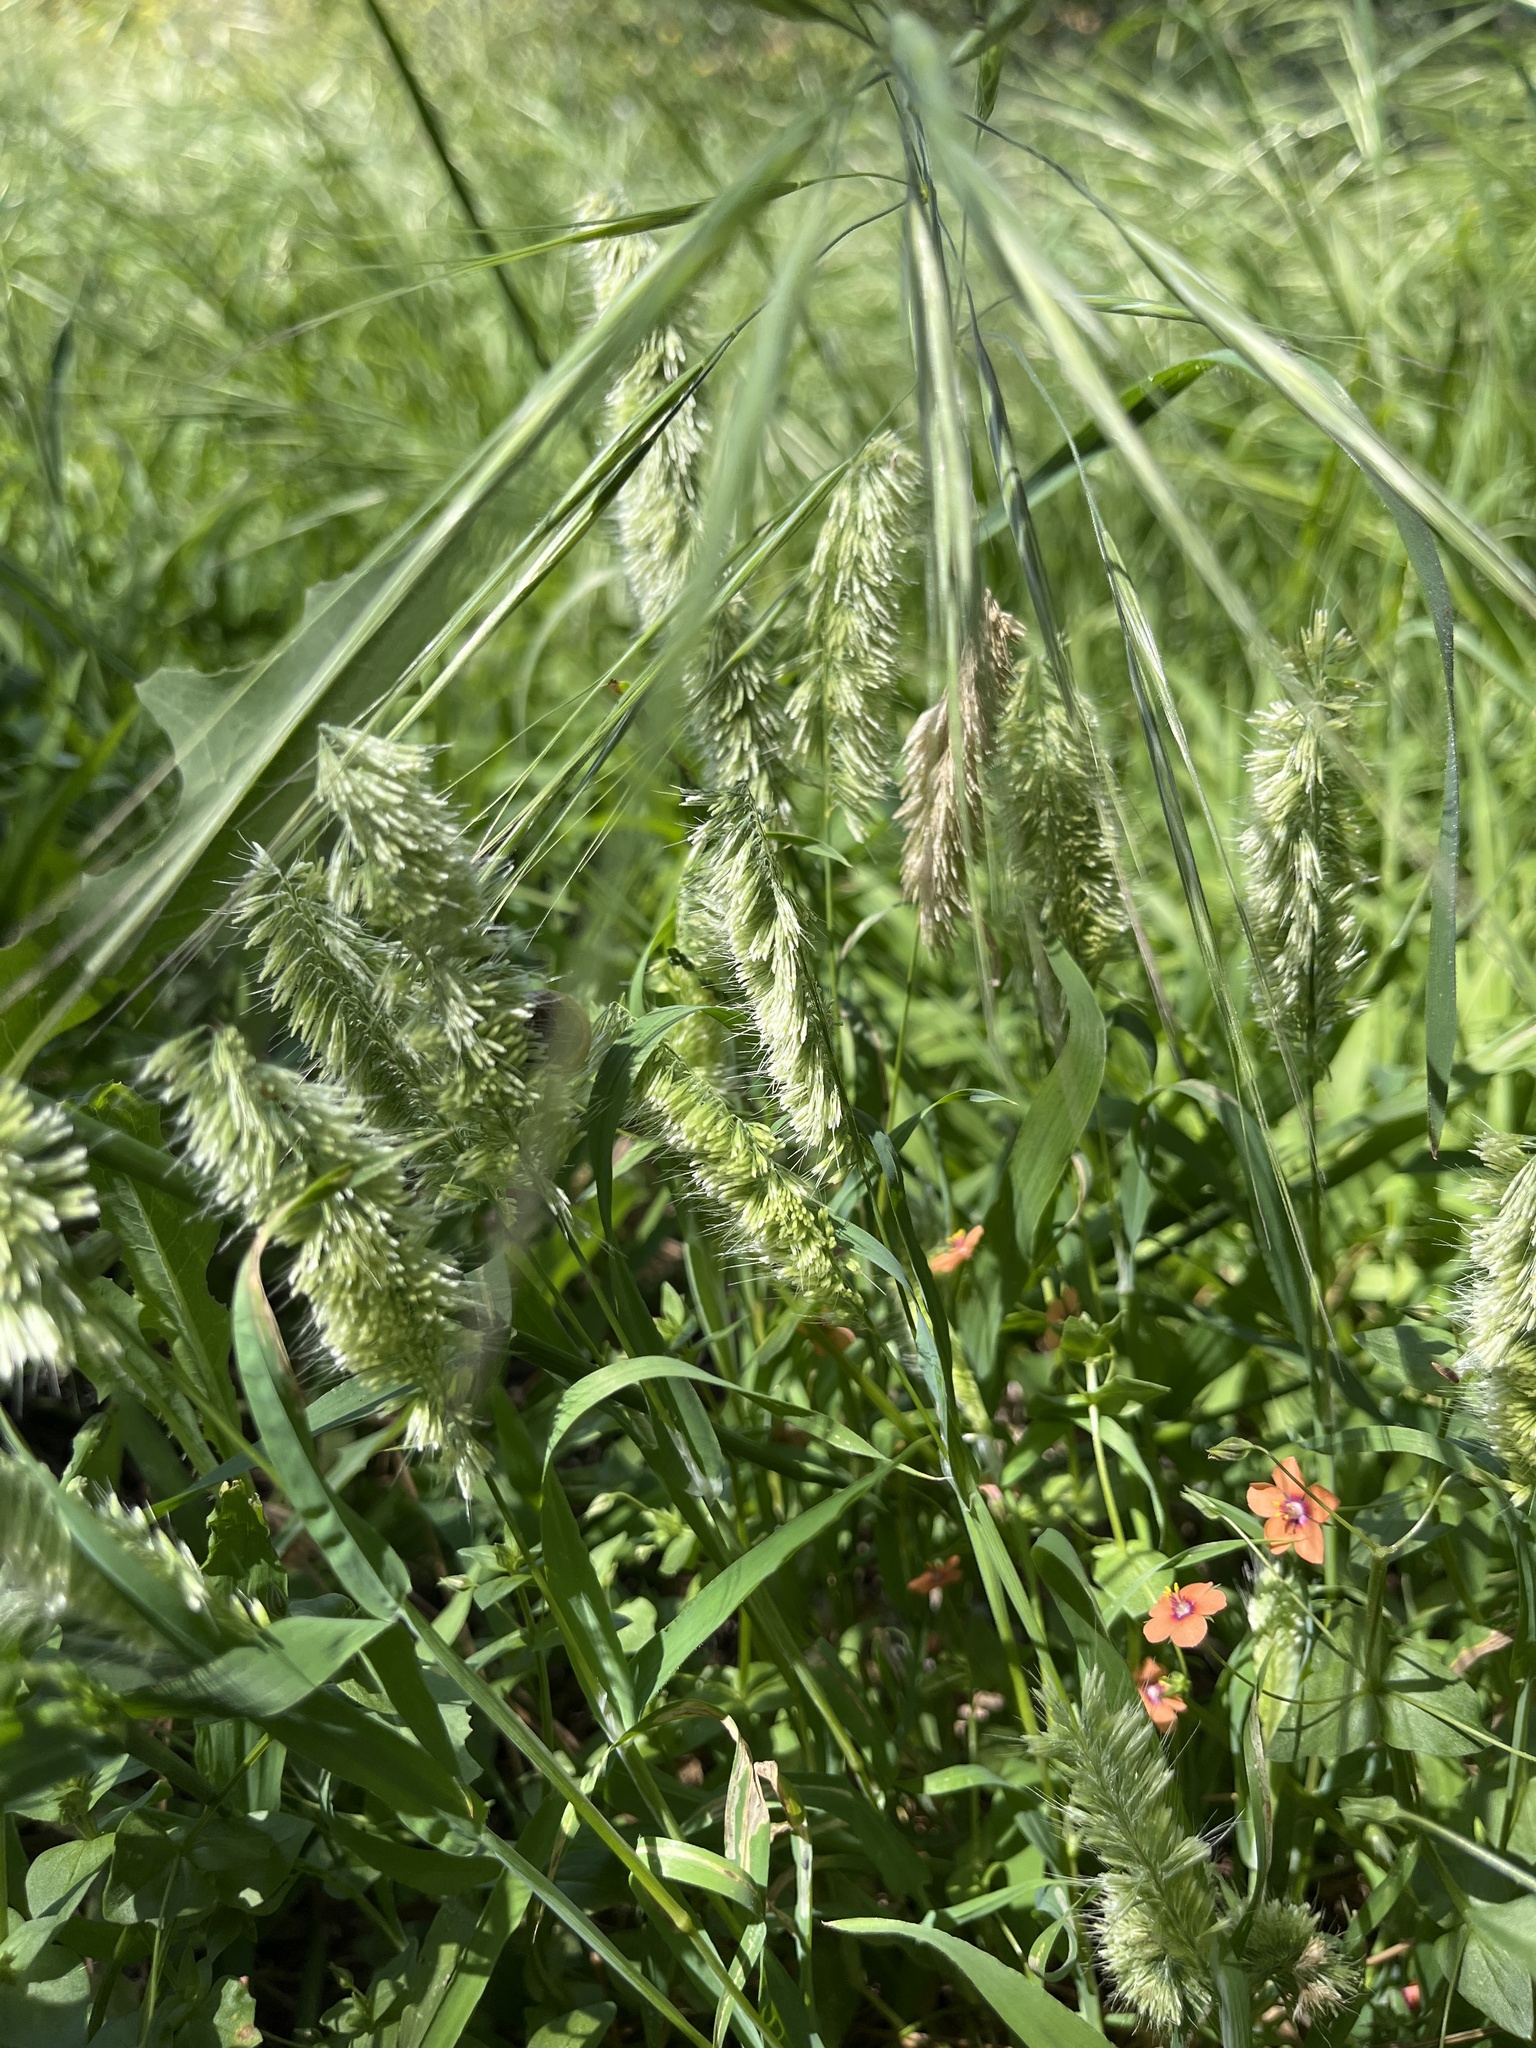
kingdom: Plantae
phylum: Tracheophyta
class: Liliopsida
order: Poales
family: Poaceae
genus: Lamarckia
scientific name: Lamarckia aurea
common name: Golden dog's-tail
